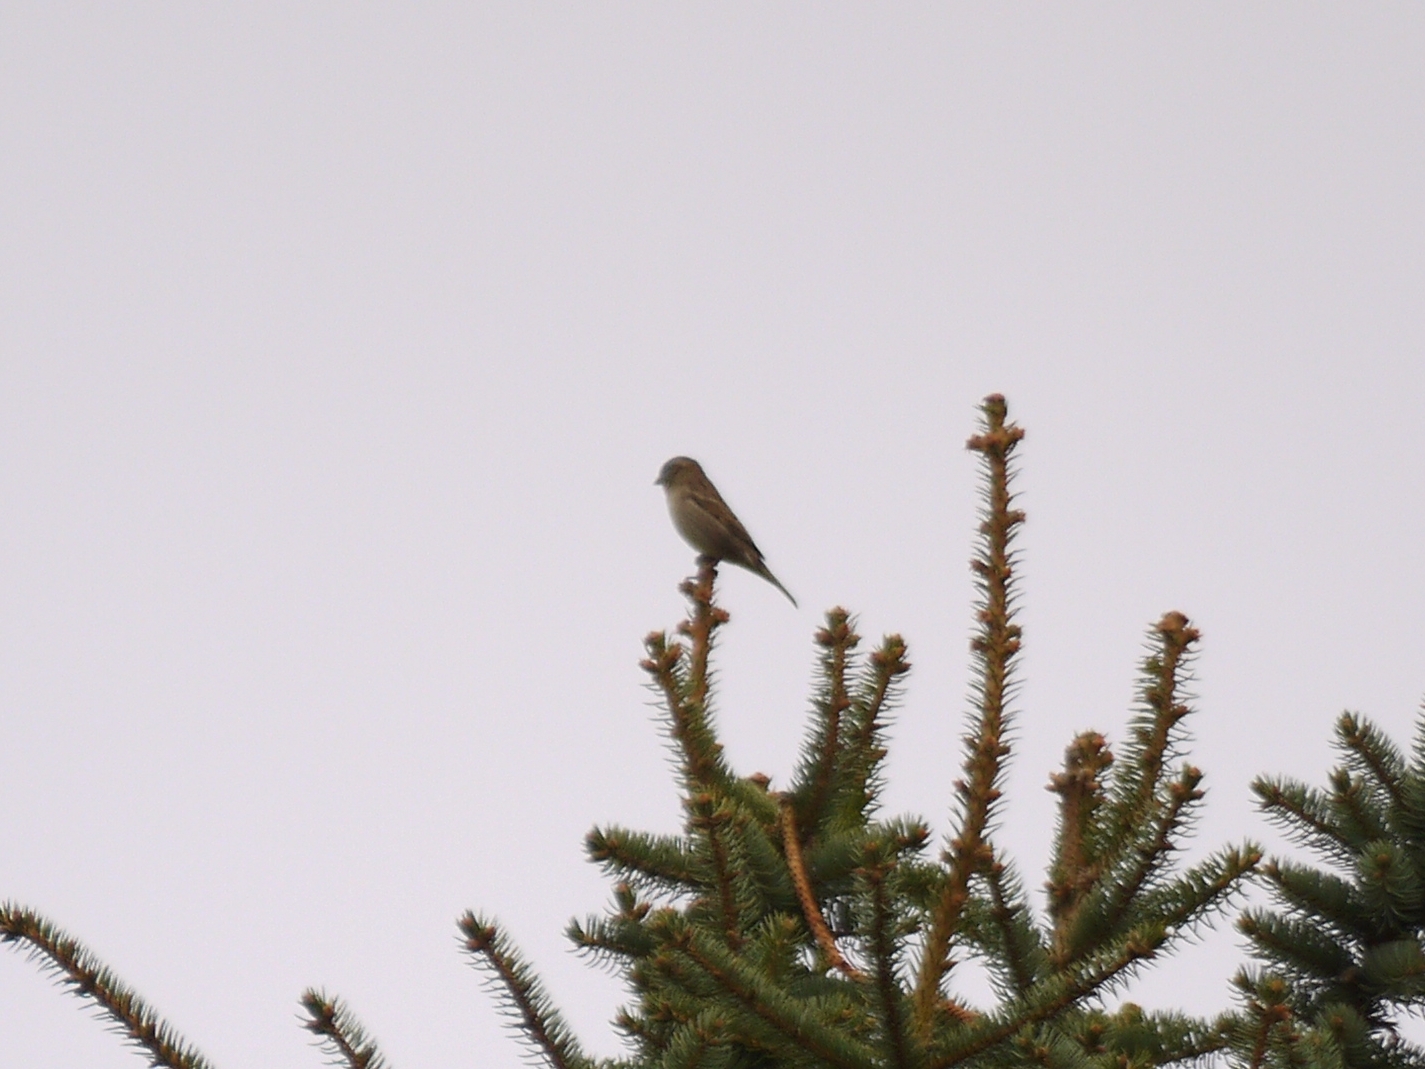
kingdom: Animalia
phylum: Chordata
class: Aves
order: Passeriformes
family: Passeridae
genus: Passer
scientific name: Passer domesticus
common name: House sparrow
